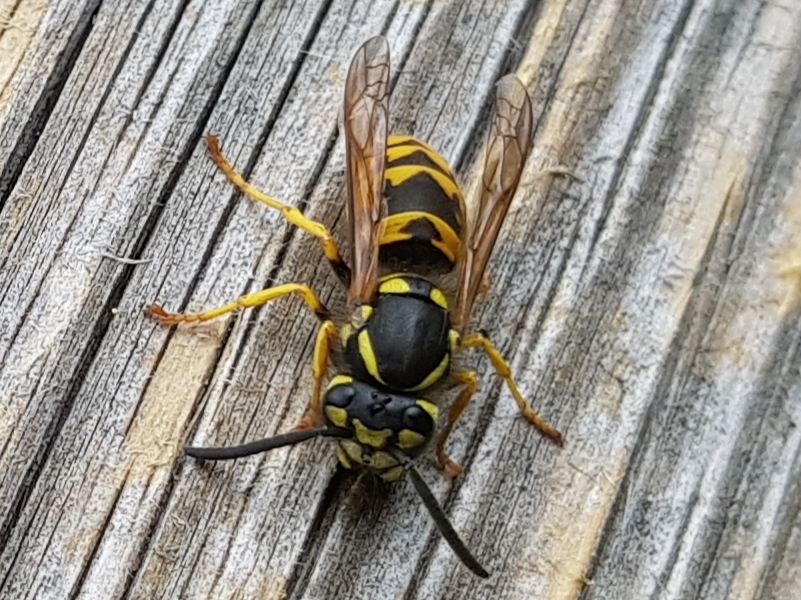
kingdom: Animalia
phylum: Arthropoda
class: Insecta
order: Hymenoptera
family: Vespidae
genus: Vespula
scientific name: Vespula germanica
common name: German wasp
